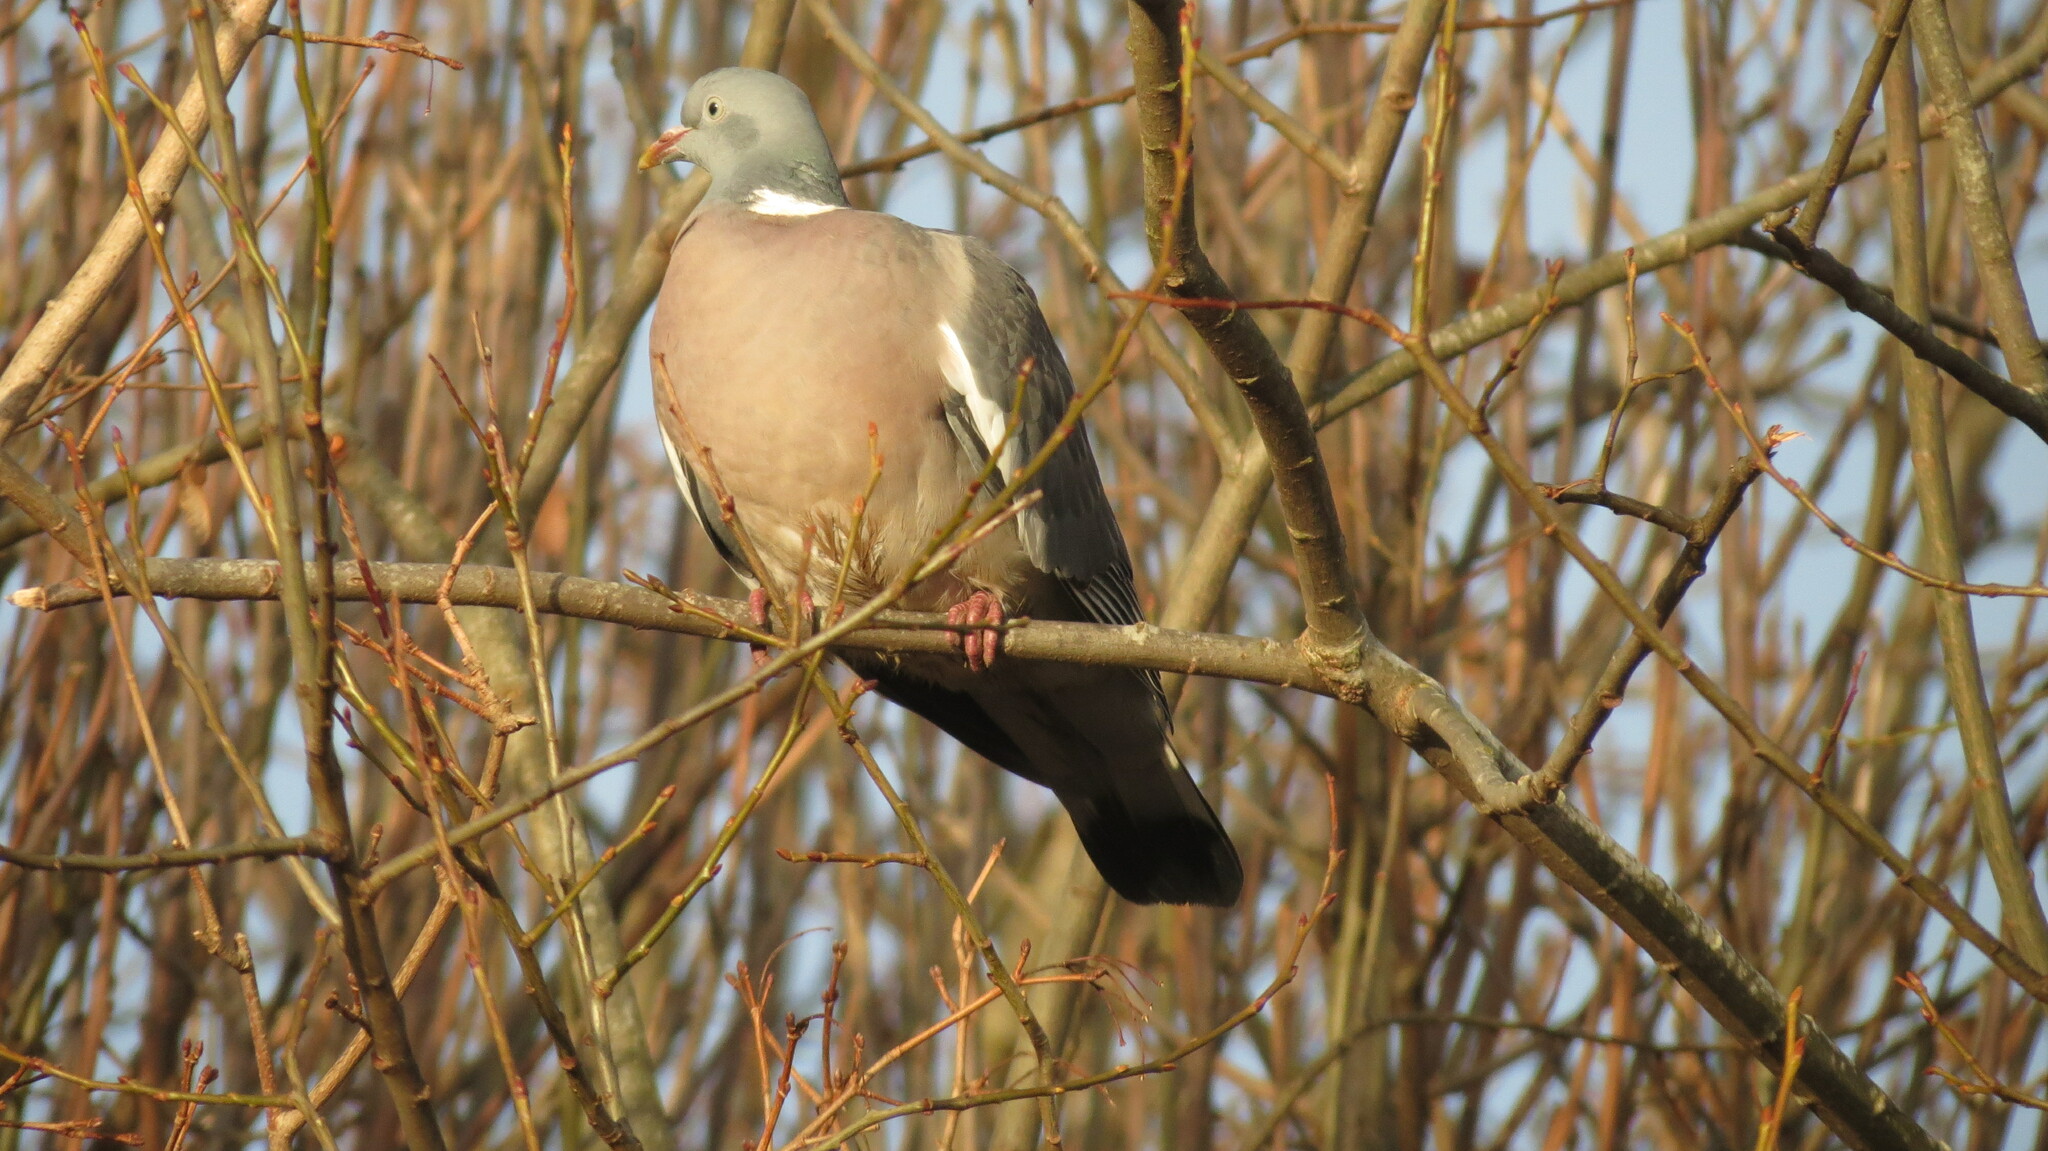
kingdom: Animalia
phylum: Chordata
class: Aves
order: Columbiformes
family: Columbidae
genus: Columba
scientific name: Columba palumbus
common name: Common wood pigeon
